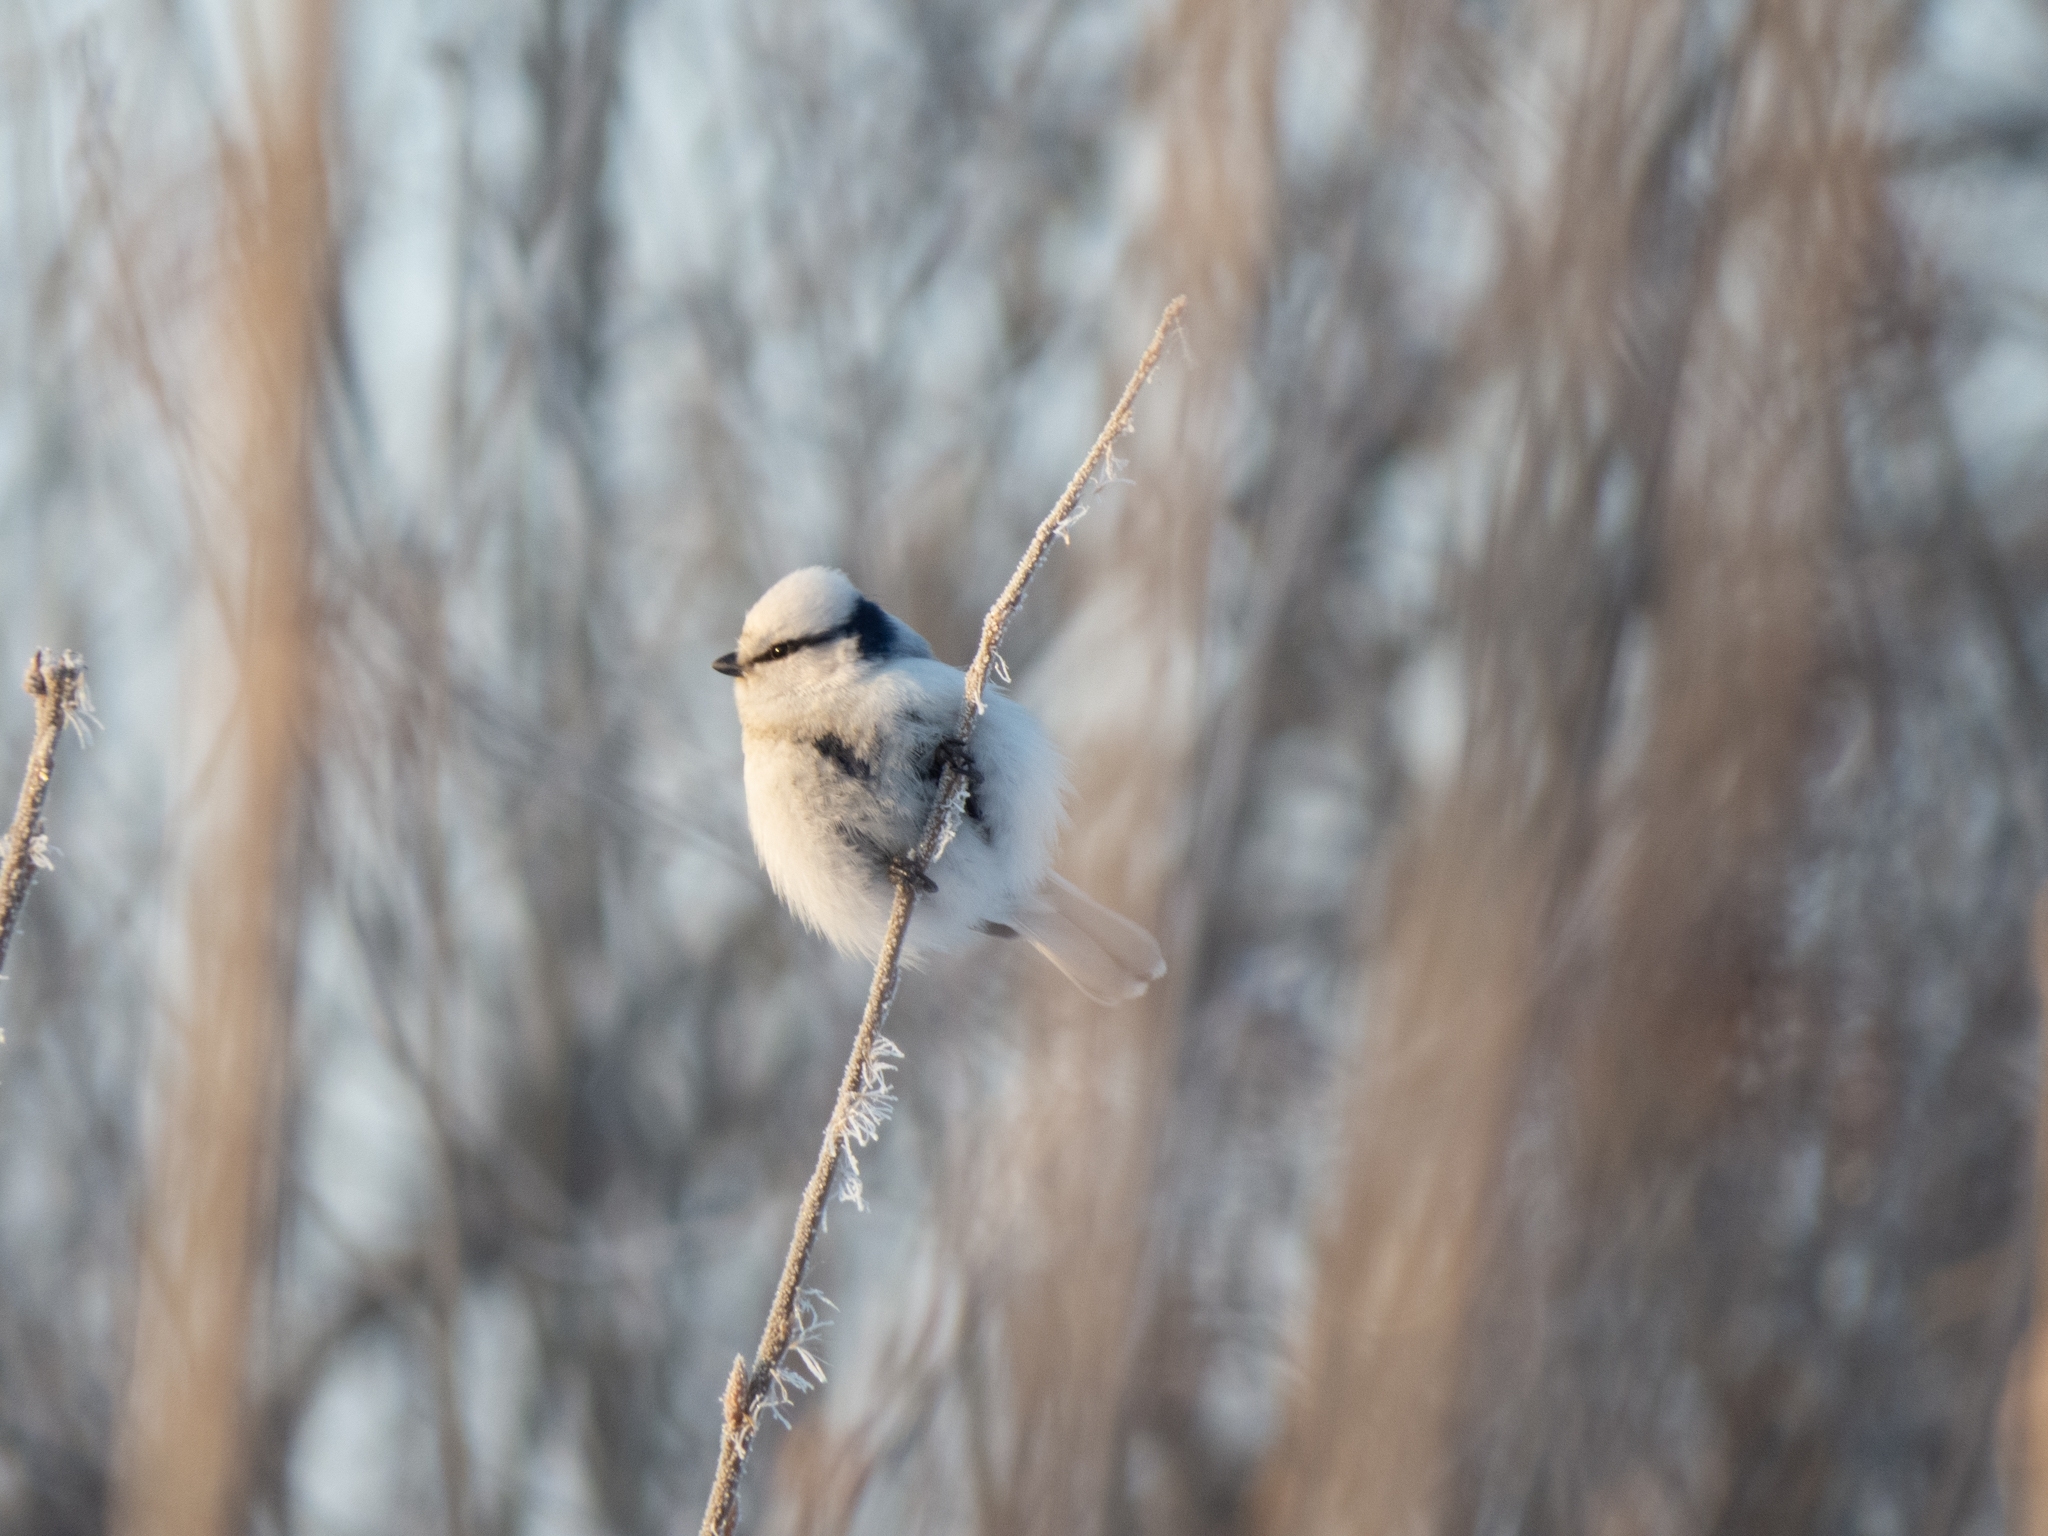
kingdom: Animalia
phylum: Chordata
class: Aves
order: Passeriformes
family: Paridae
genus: Cyanistes
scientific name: Cyanistes cyanus
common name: Azure tit
